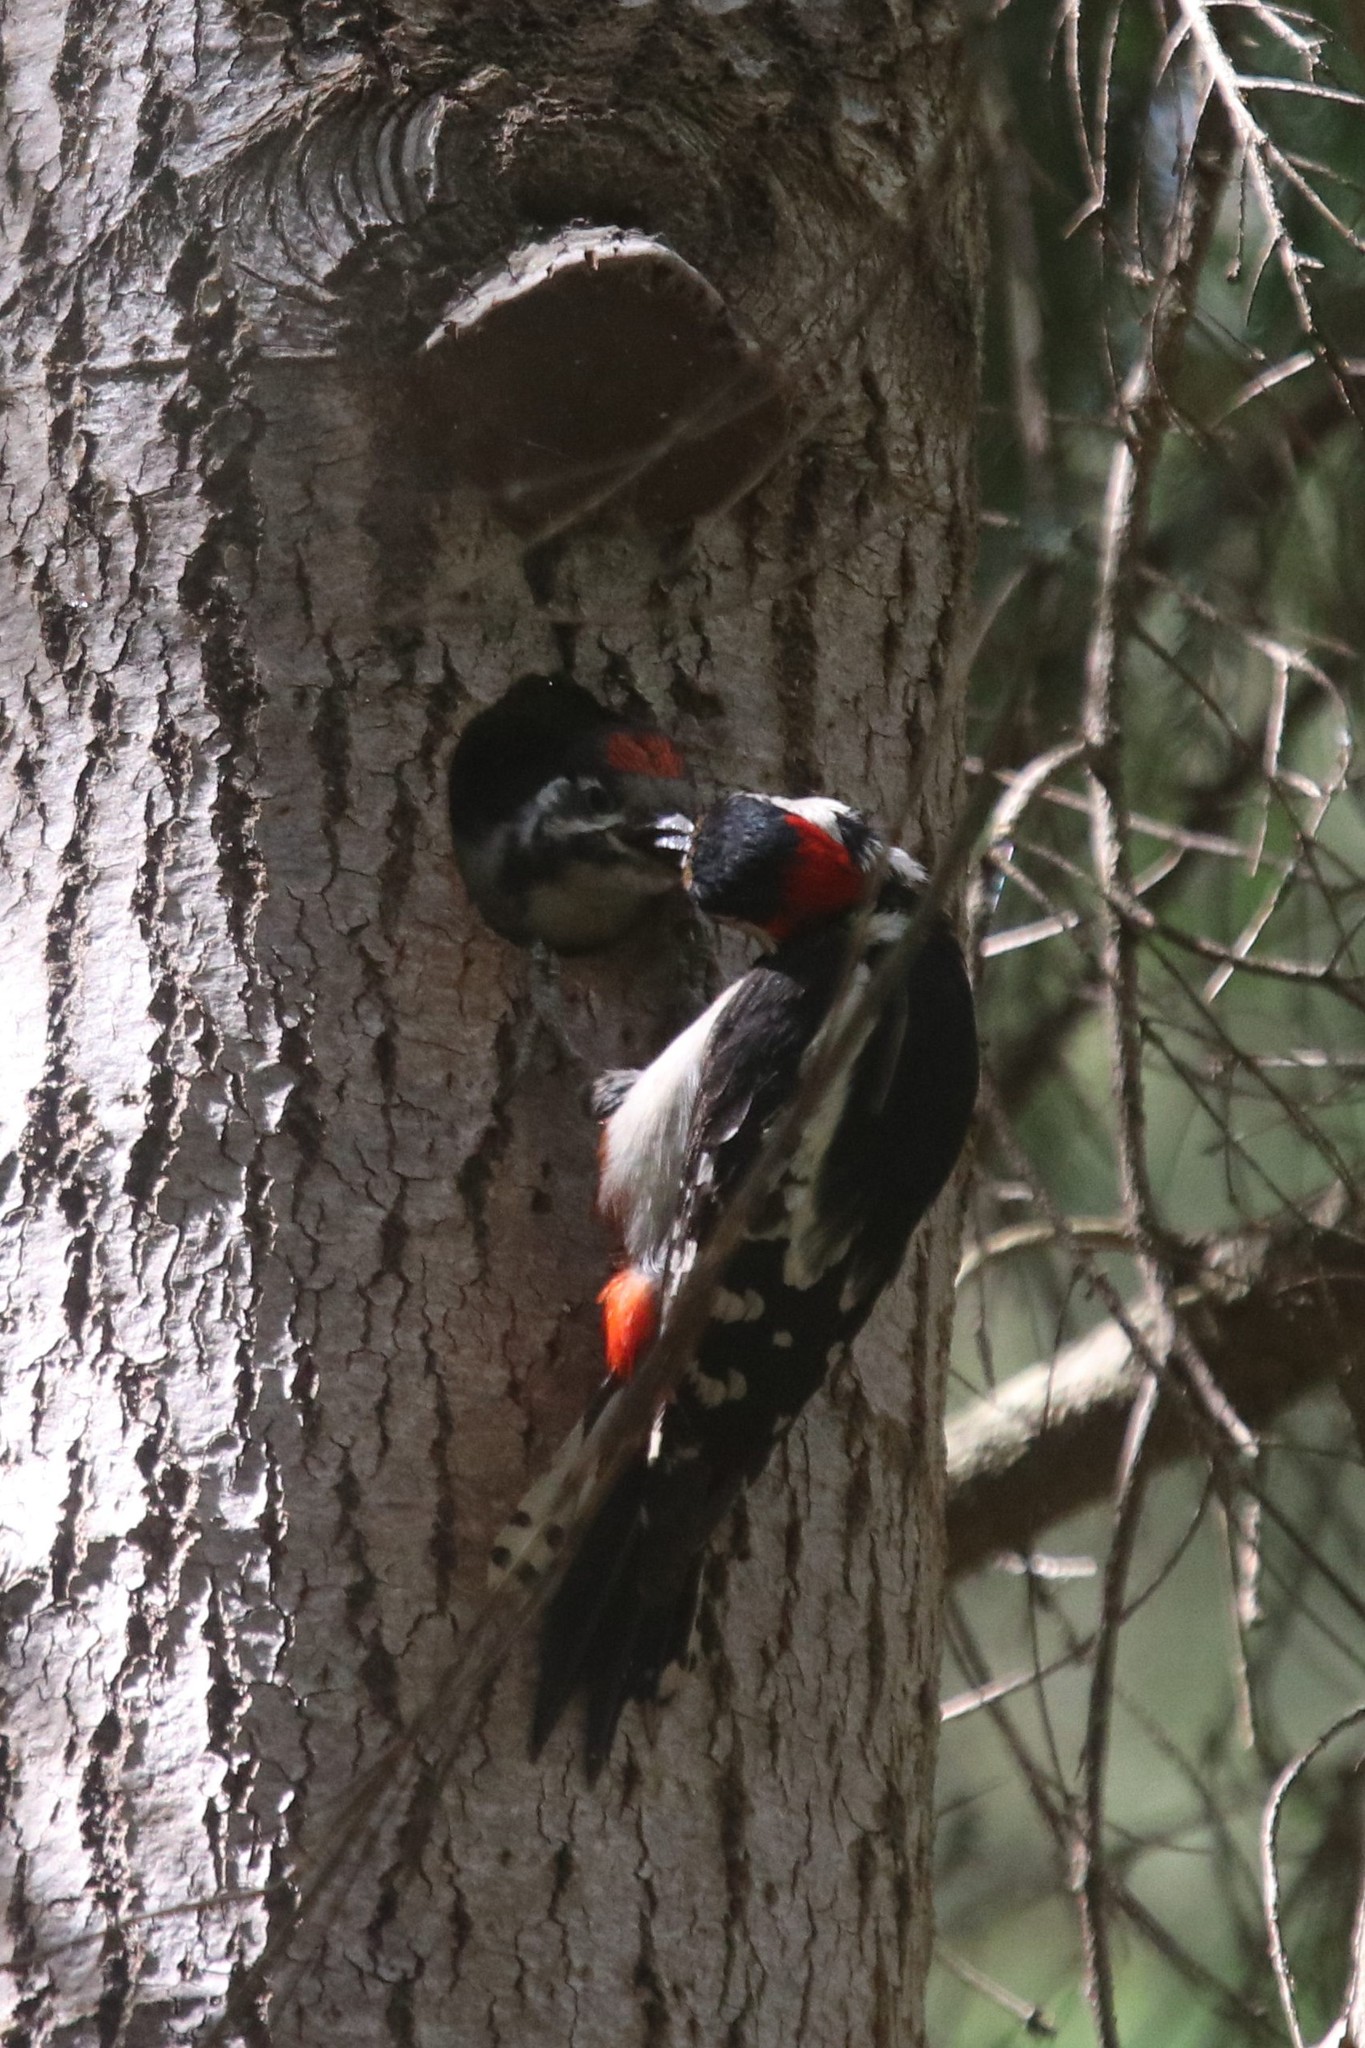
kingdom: Animalia
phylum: Chordata
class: Aves
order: Piciformes
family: Picidae
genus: Dendrocopos
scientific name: Dendrocopos major
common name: Great spotted woodpecker
